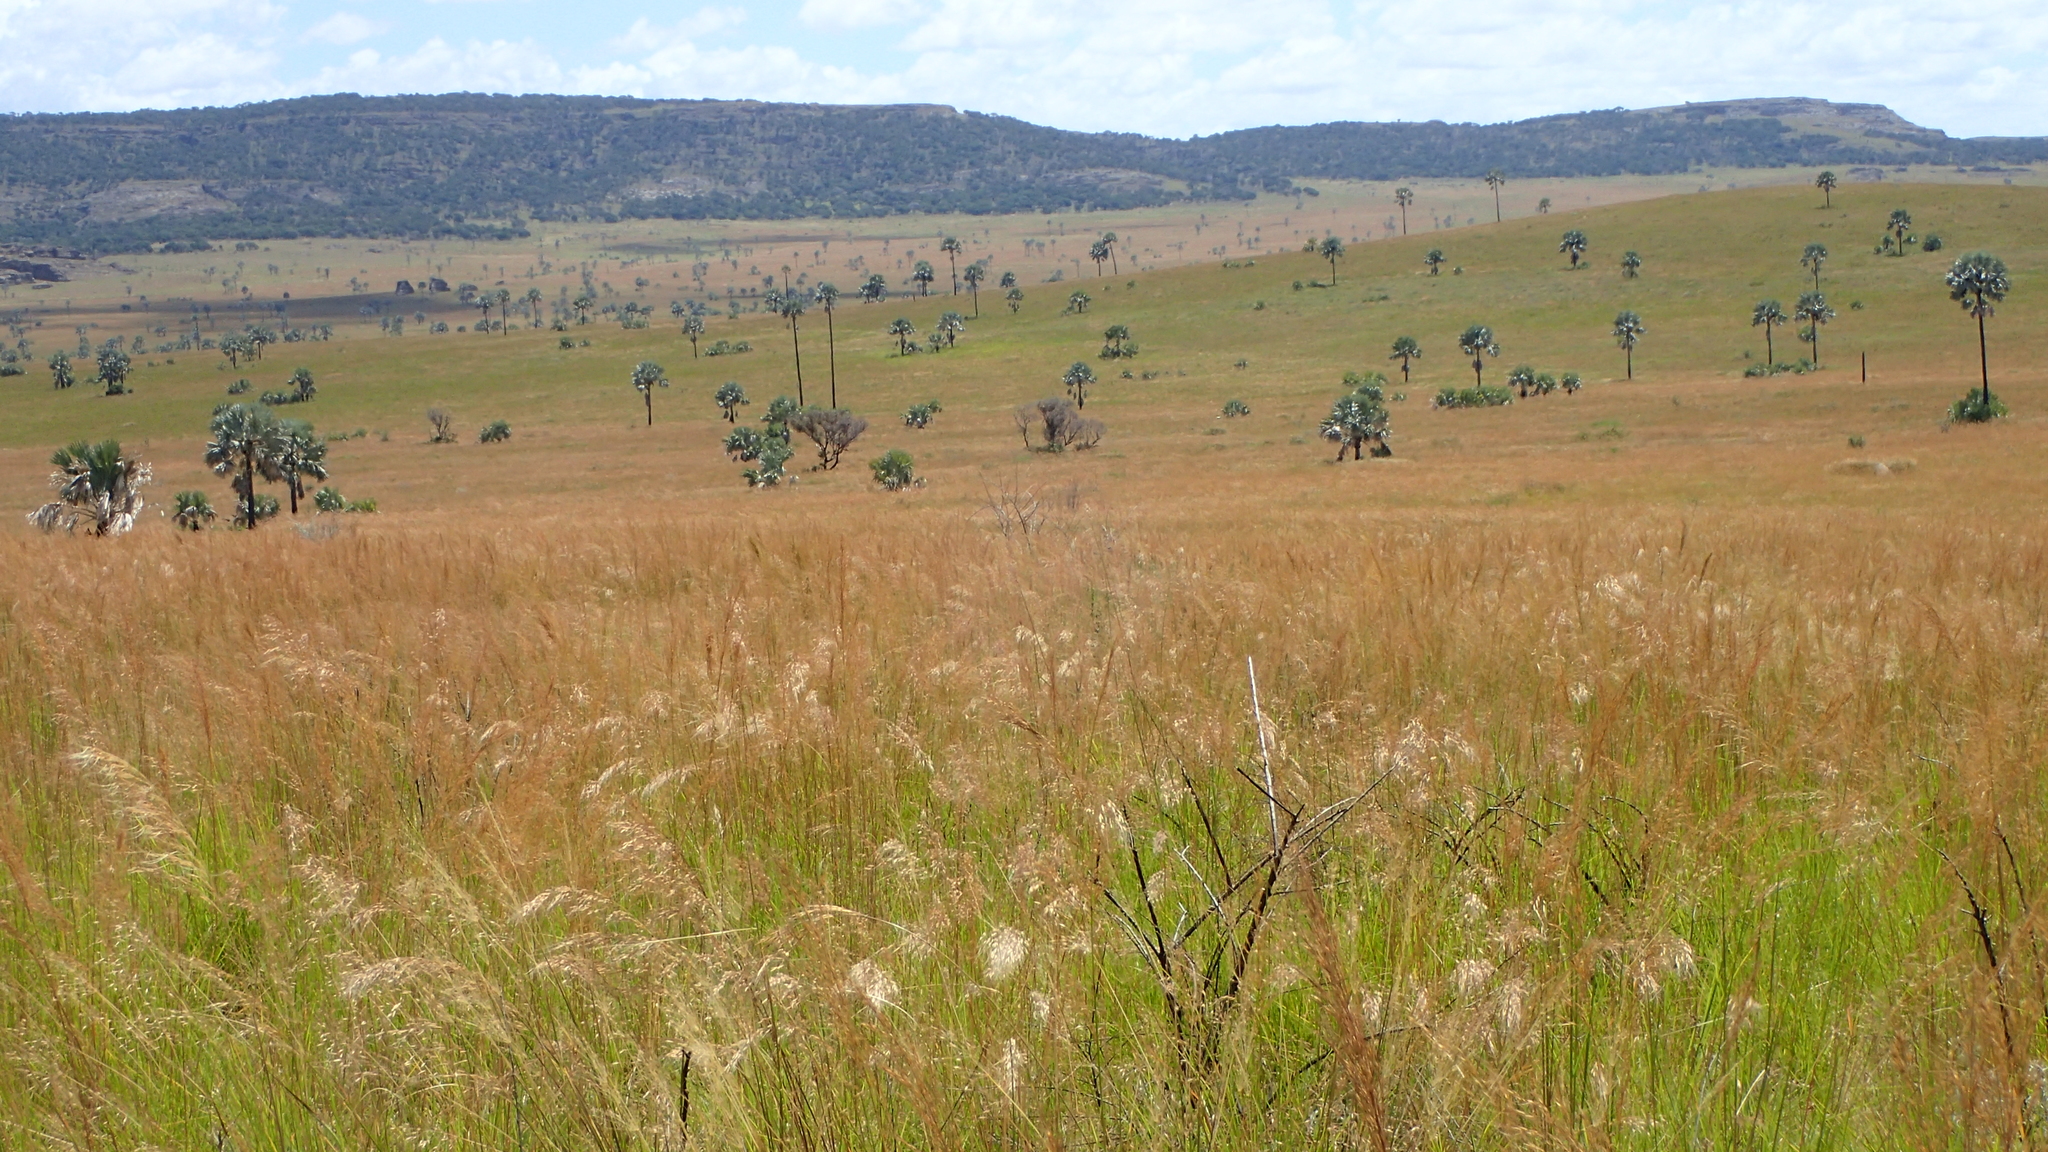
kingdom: Plantae
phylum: Tracheophyta
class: Liliopsida
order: Arecales
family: Arecaceae
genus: Bismarckia
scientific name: Bismarckia nobilis
